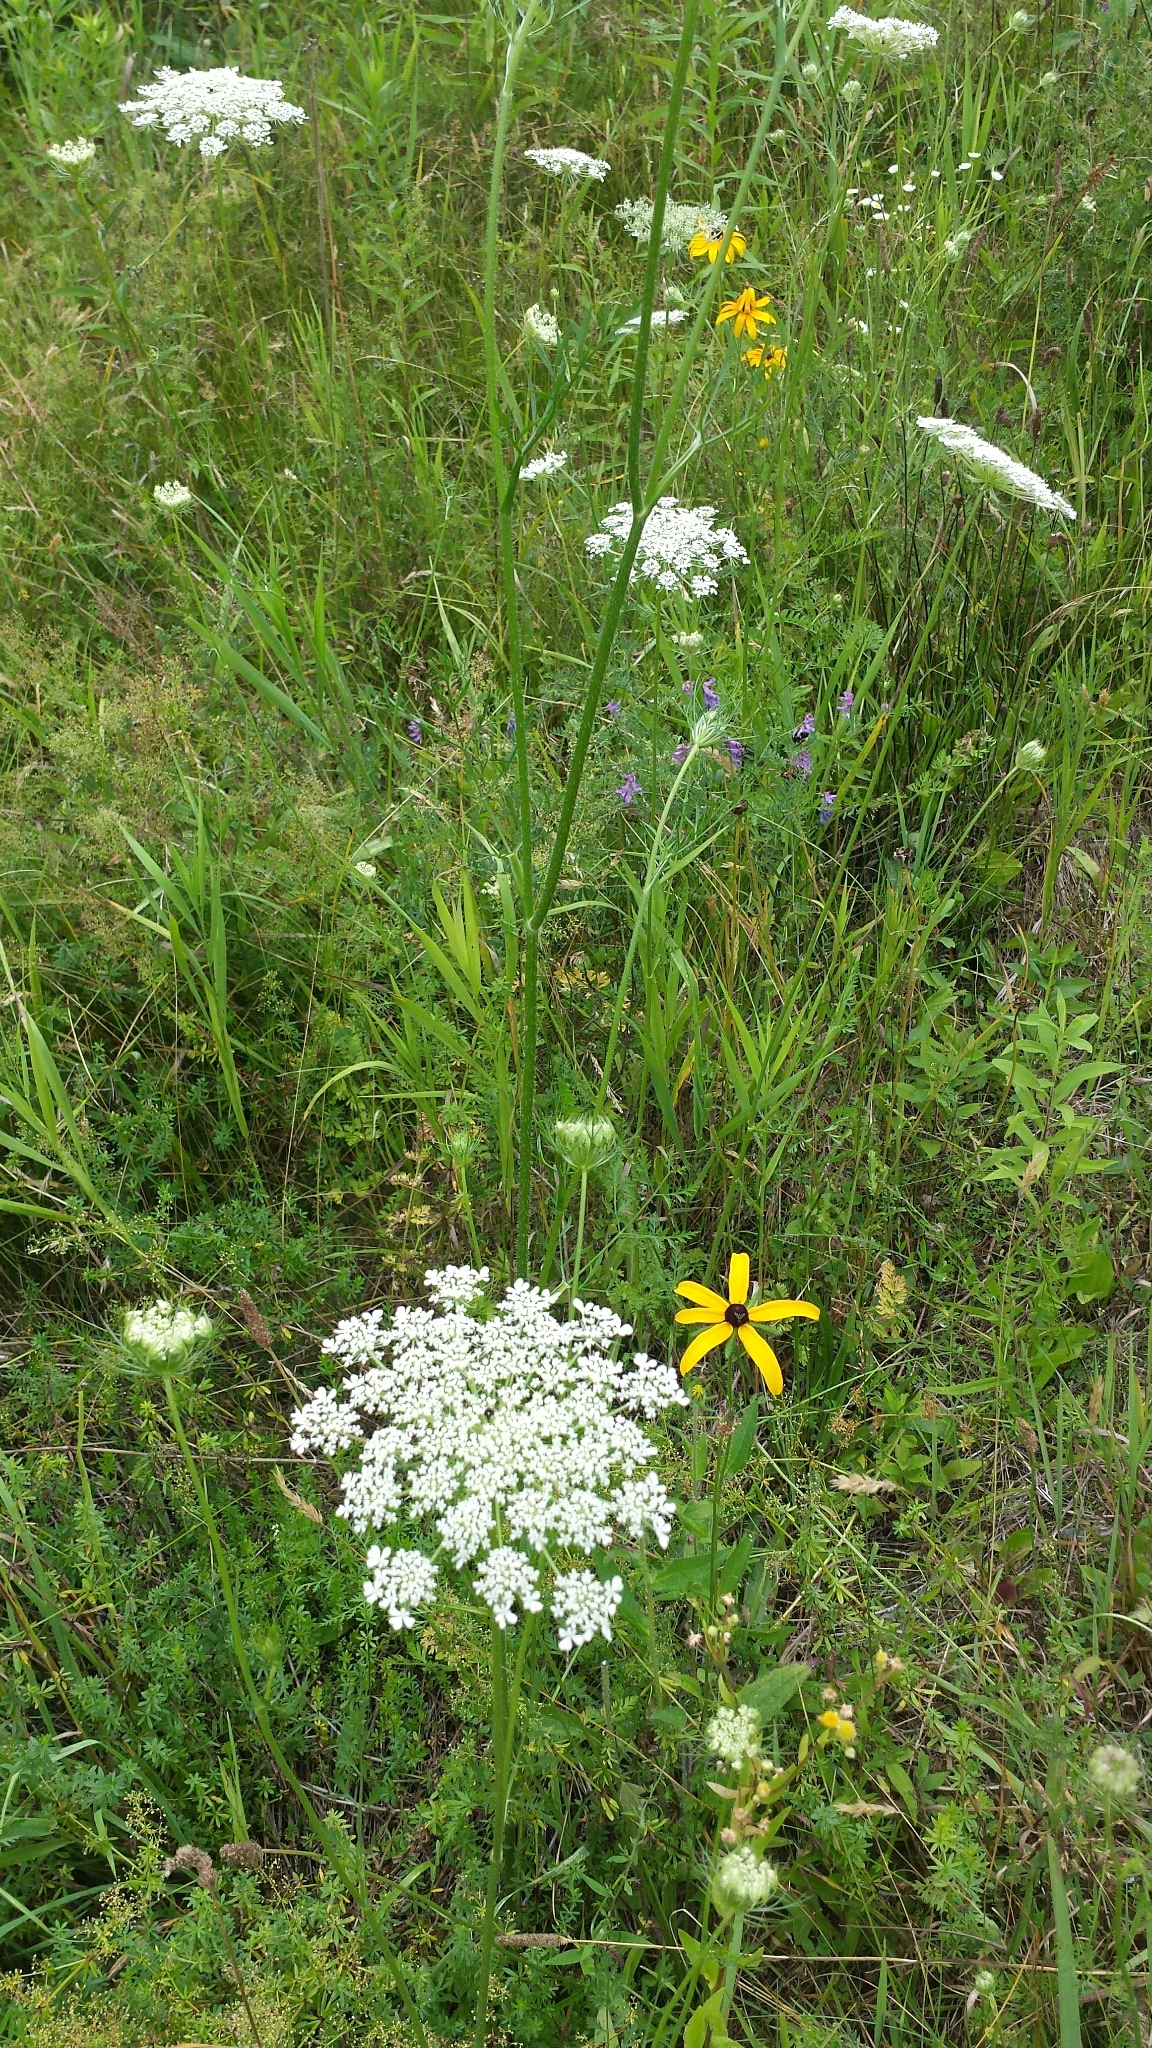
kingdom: Plantae
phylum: Tracheophyta
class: Magnoliopsida
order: Apiales
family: Apiaceae
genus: Daucus
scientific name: Daucus carota
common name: Wild carrot
